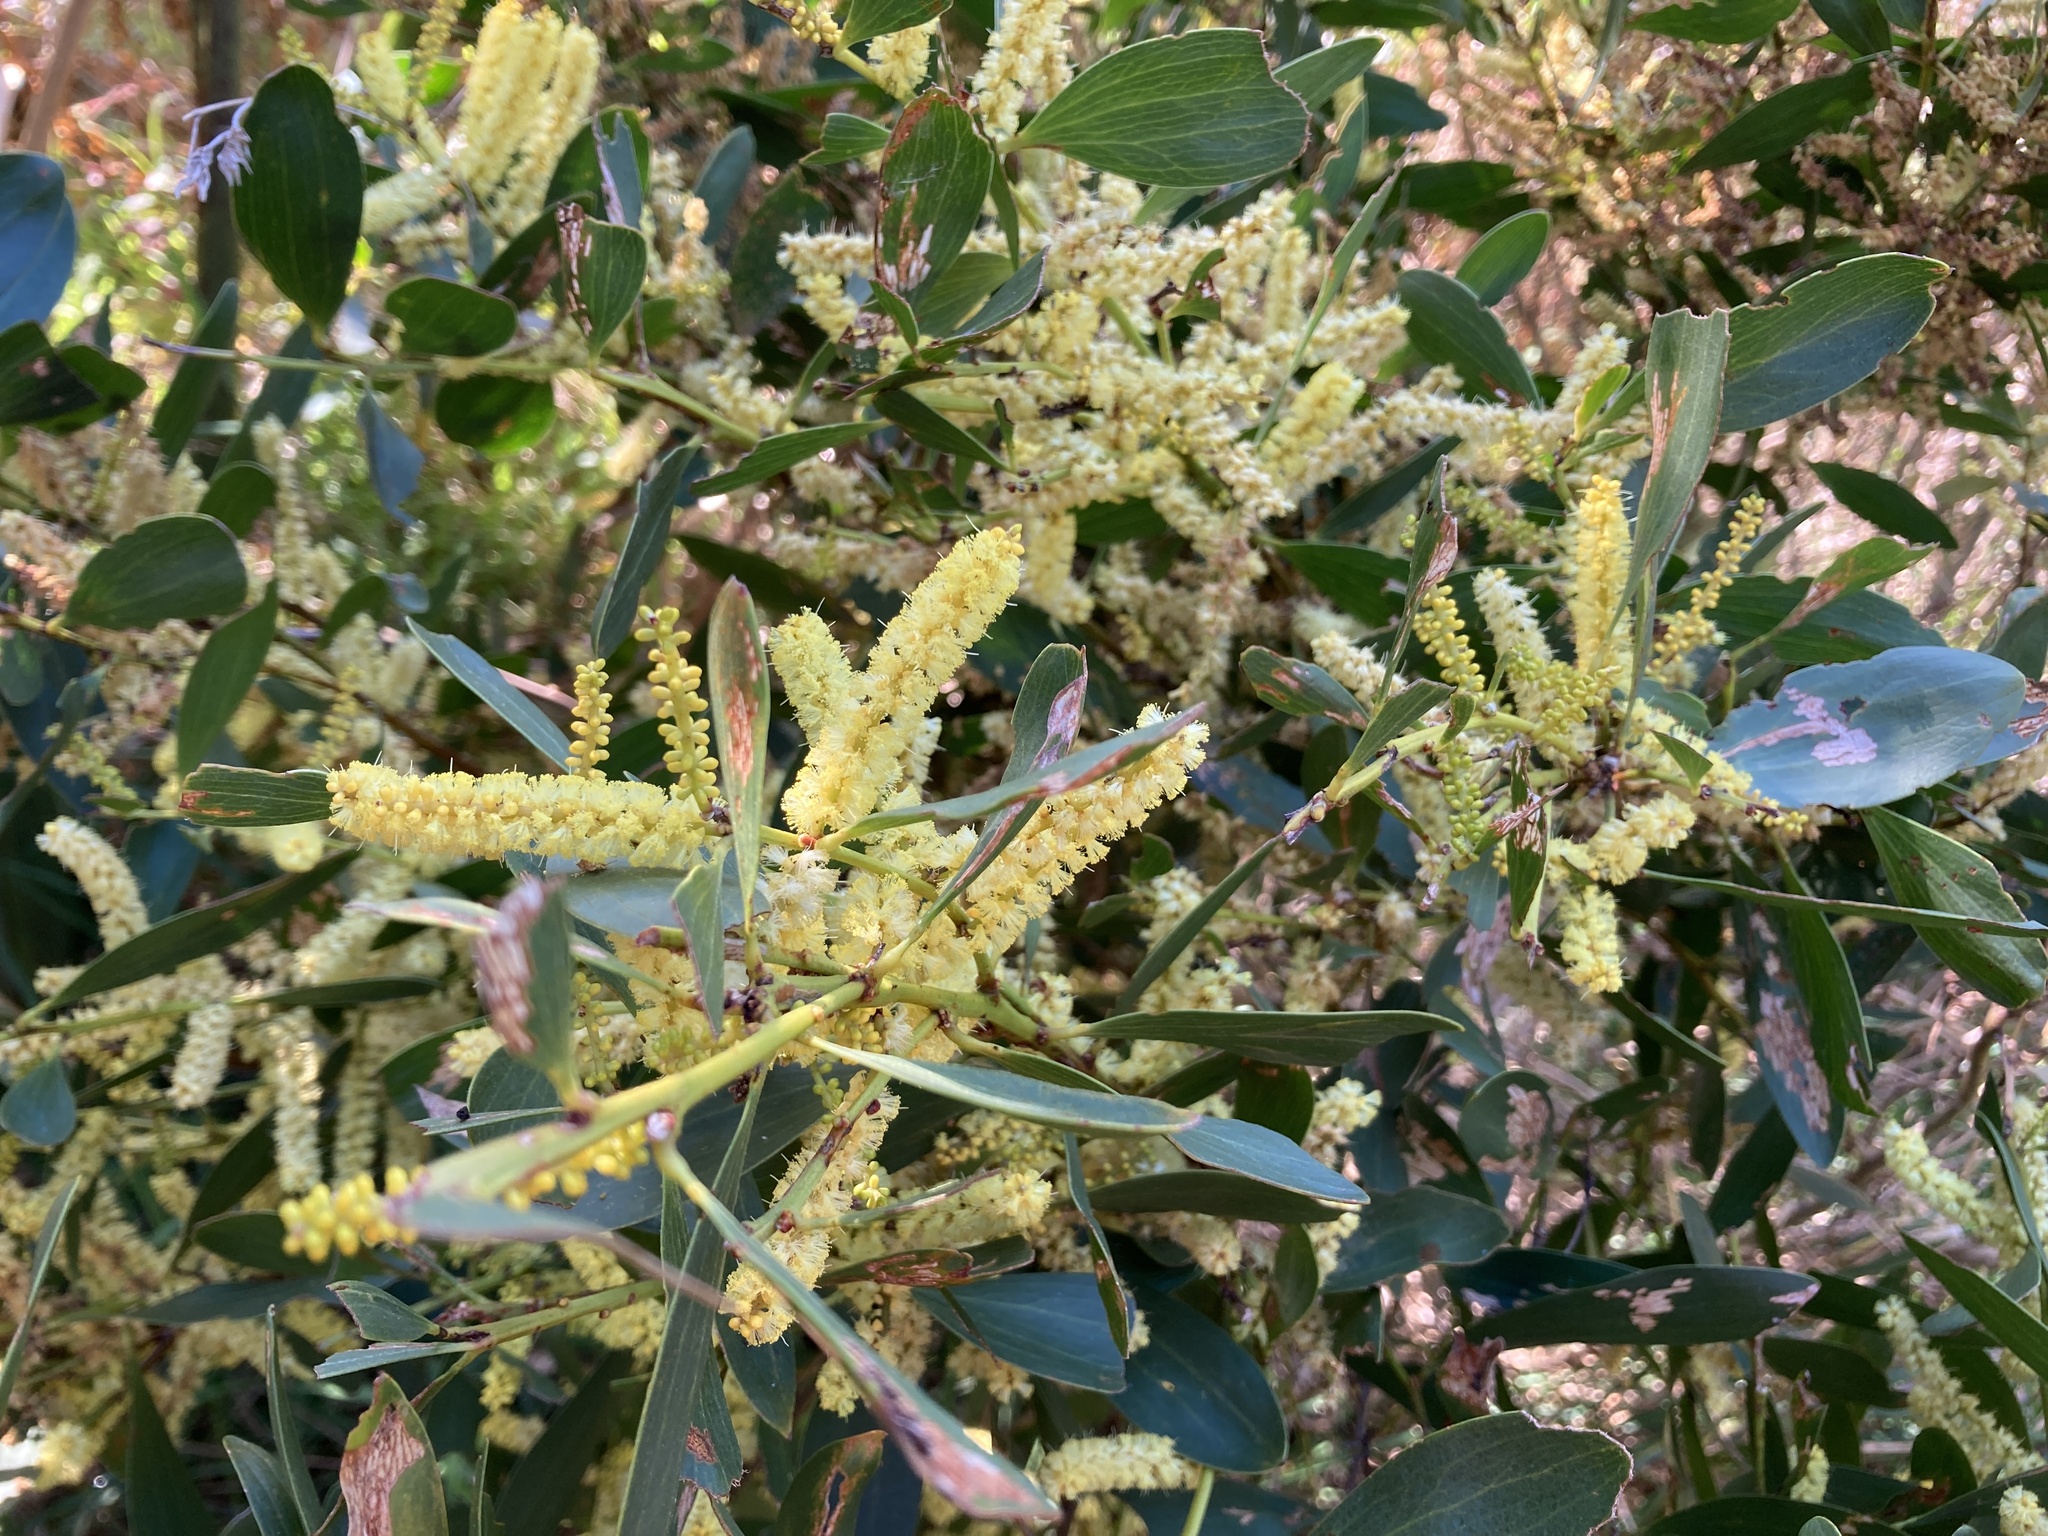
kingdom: Plantae
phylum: Tracheophyta
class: Magnoliopsida
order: Fabales
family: Fabaceae
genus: Acacia
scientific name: Acacia longifolia
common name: Sydney golden wattle
